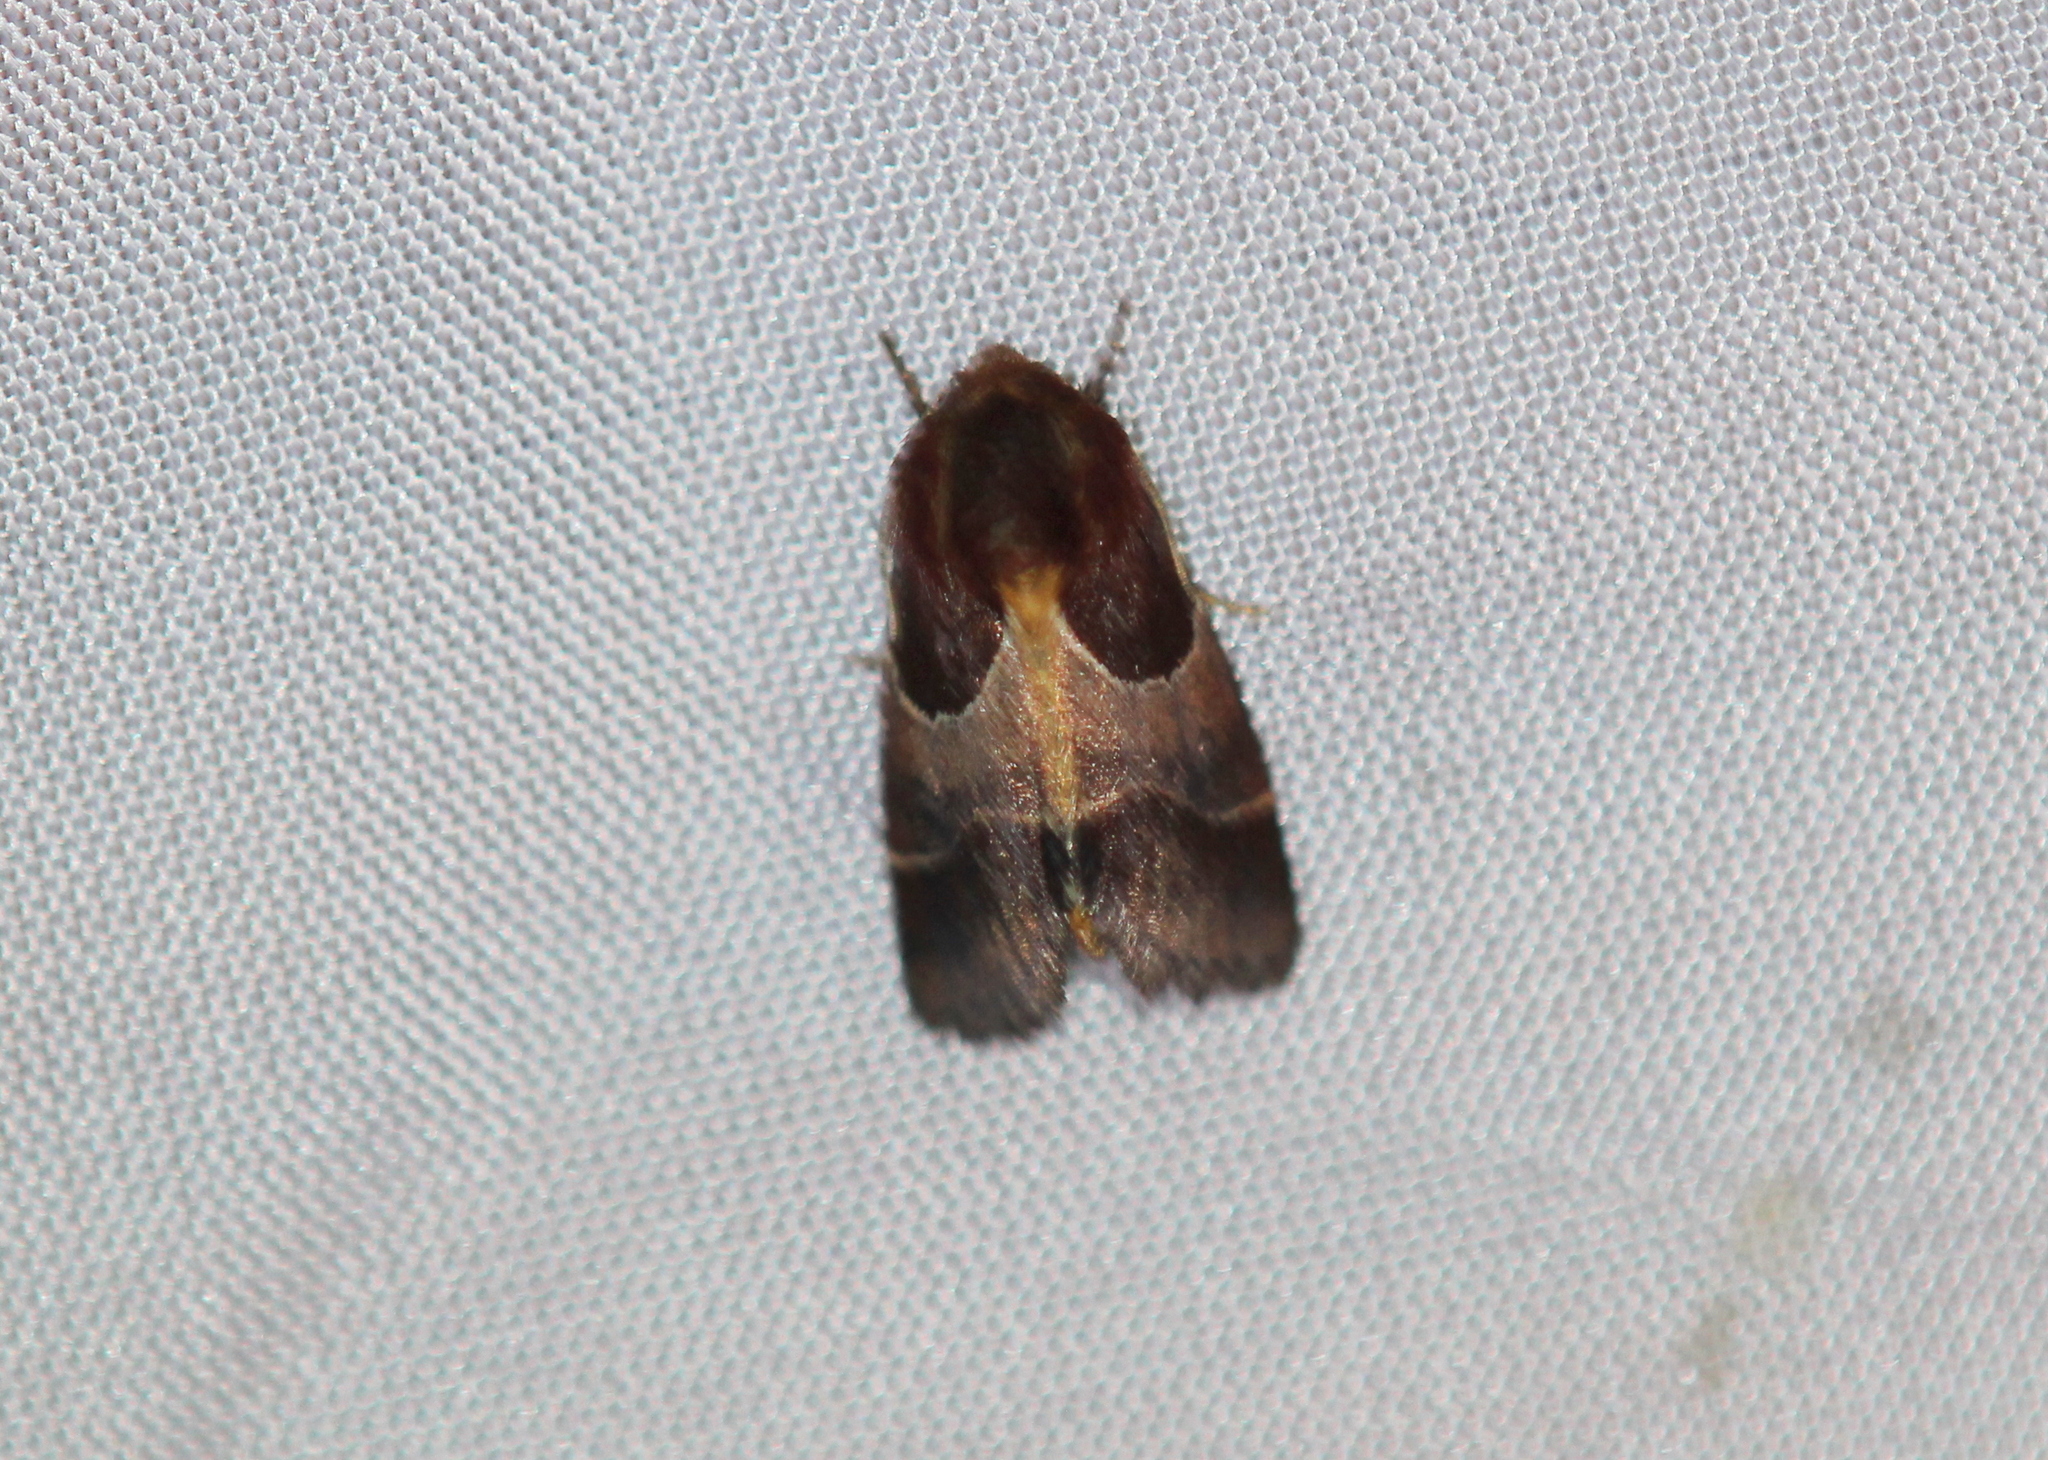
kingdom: Animalia
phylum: Arthropoda
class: Insecta
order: Lepidoptera
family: Noctuidae
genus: Schinia
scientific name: Schinia arcigera
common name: Arcigera flower moth
